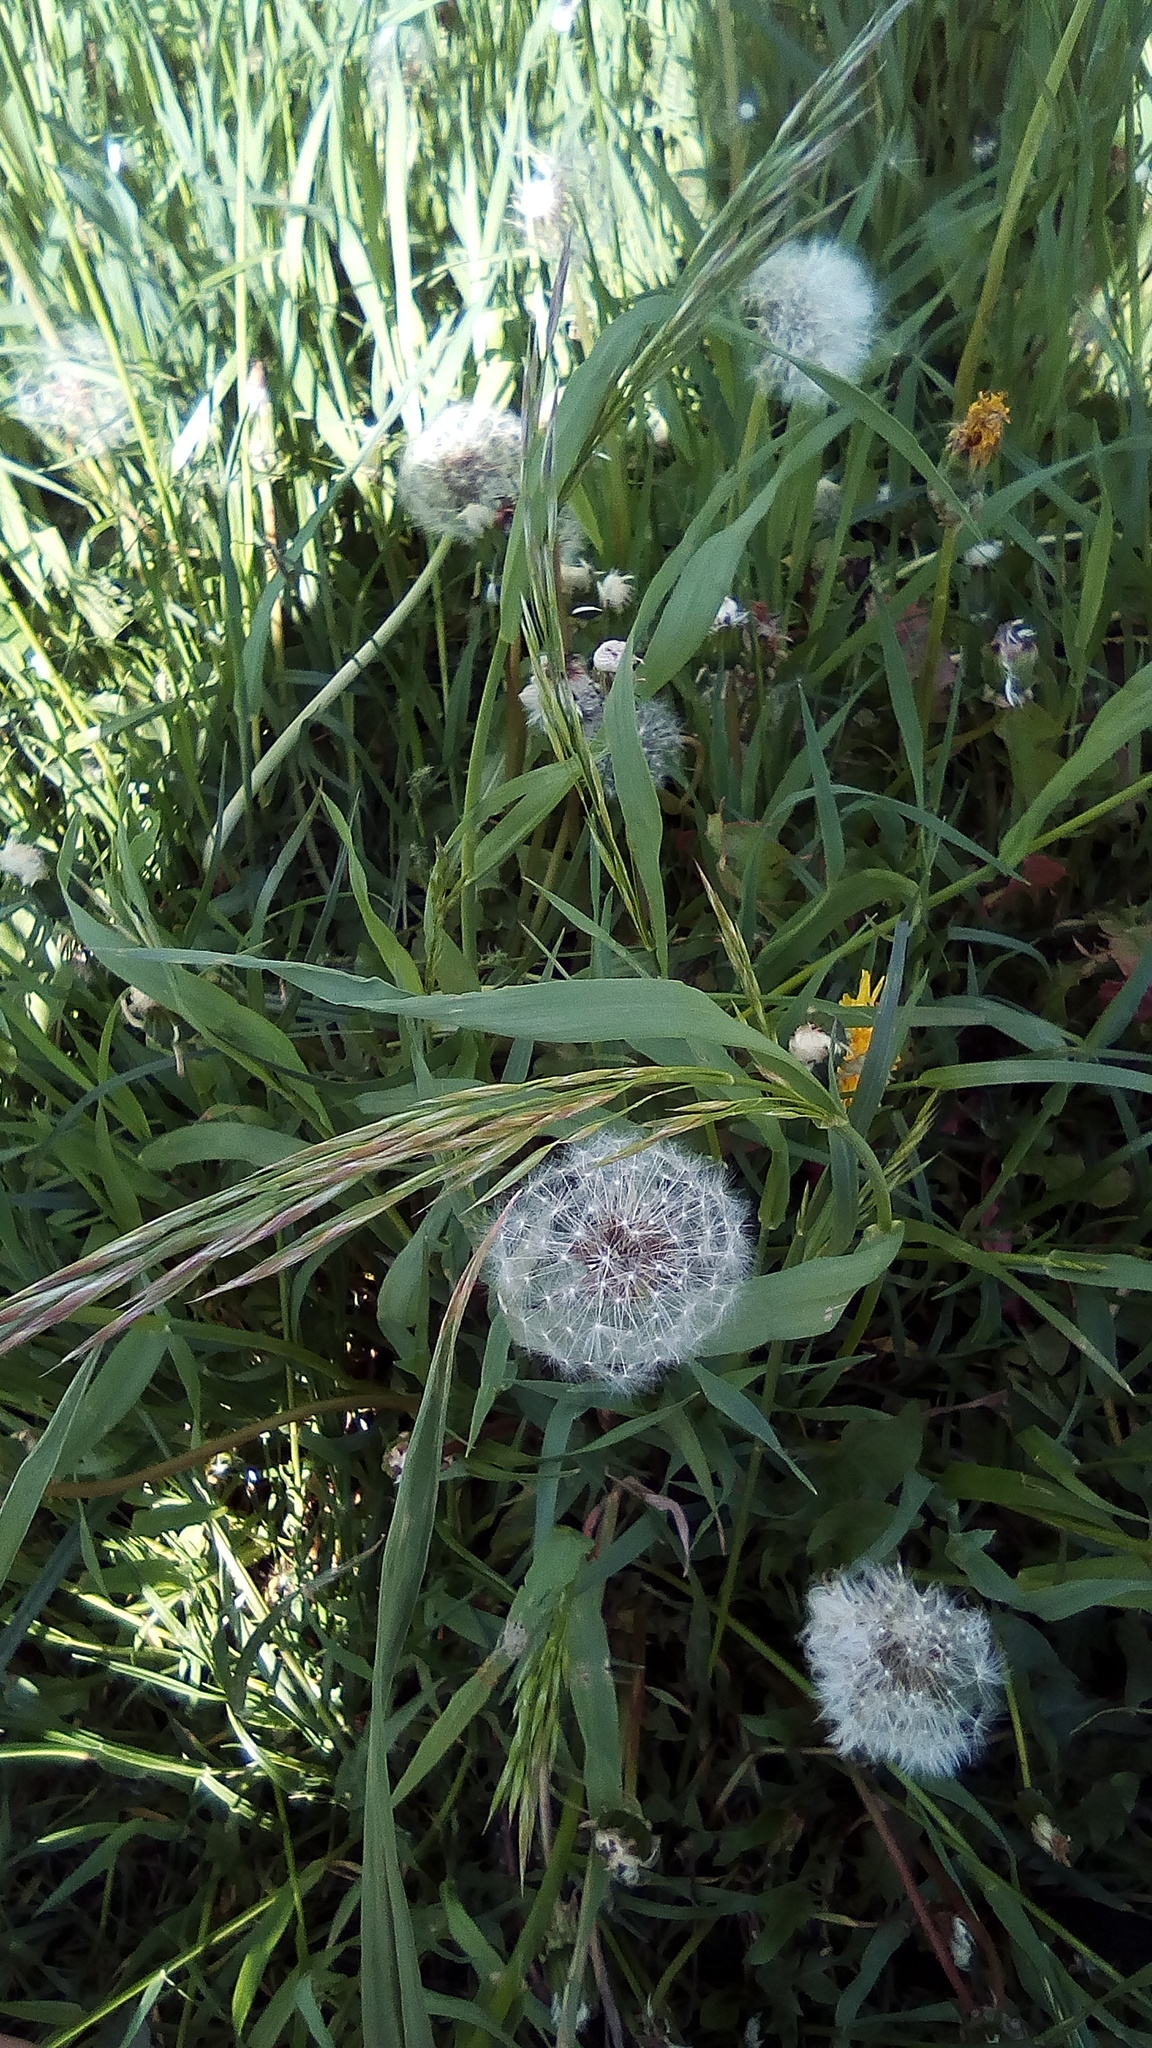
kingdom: Plantae
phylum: Tracheophyta
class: Magnoliopsida
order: Asterales
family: Asteraceae
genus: Taraxacum
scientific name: Taraxacum officinale
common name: Common dandelion
